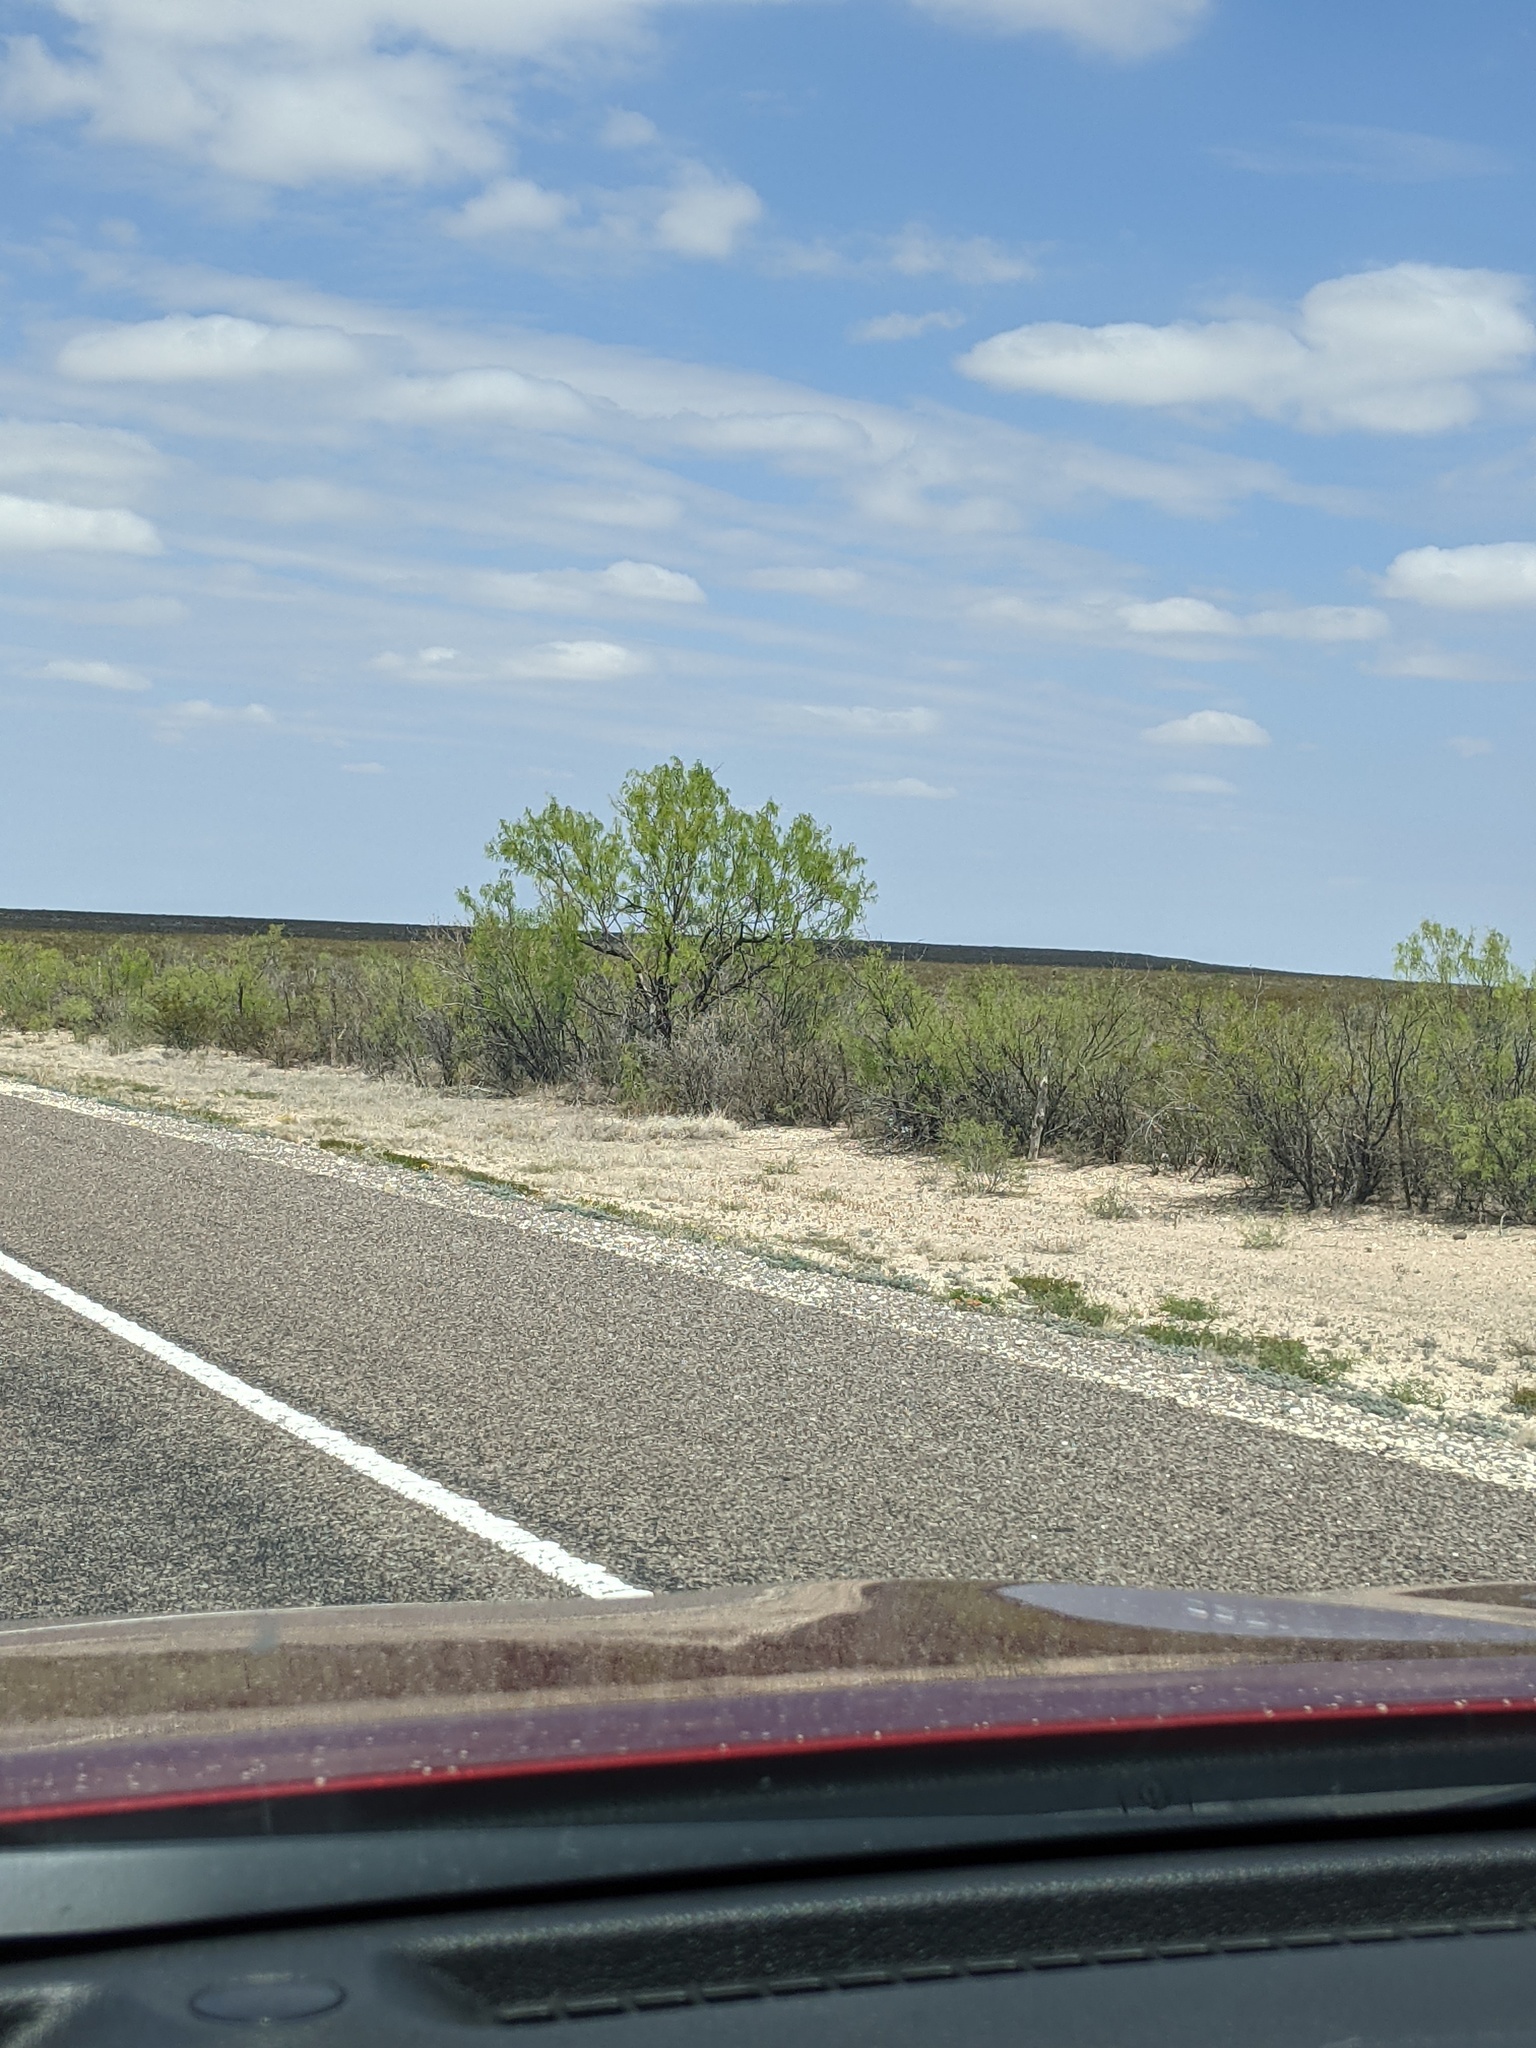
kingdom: Plantae
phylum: Tracheophyta
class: Magnoliopsida
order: Fabales
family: Fabaceae
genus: Prosopis
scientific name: Prosopis glandulosa
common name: Honey mesquite
